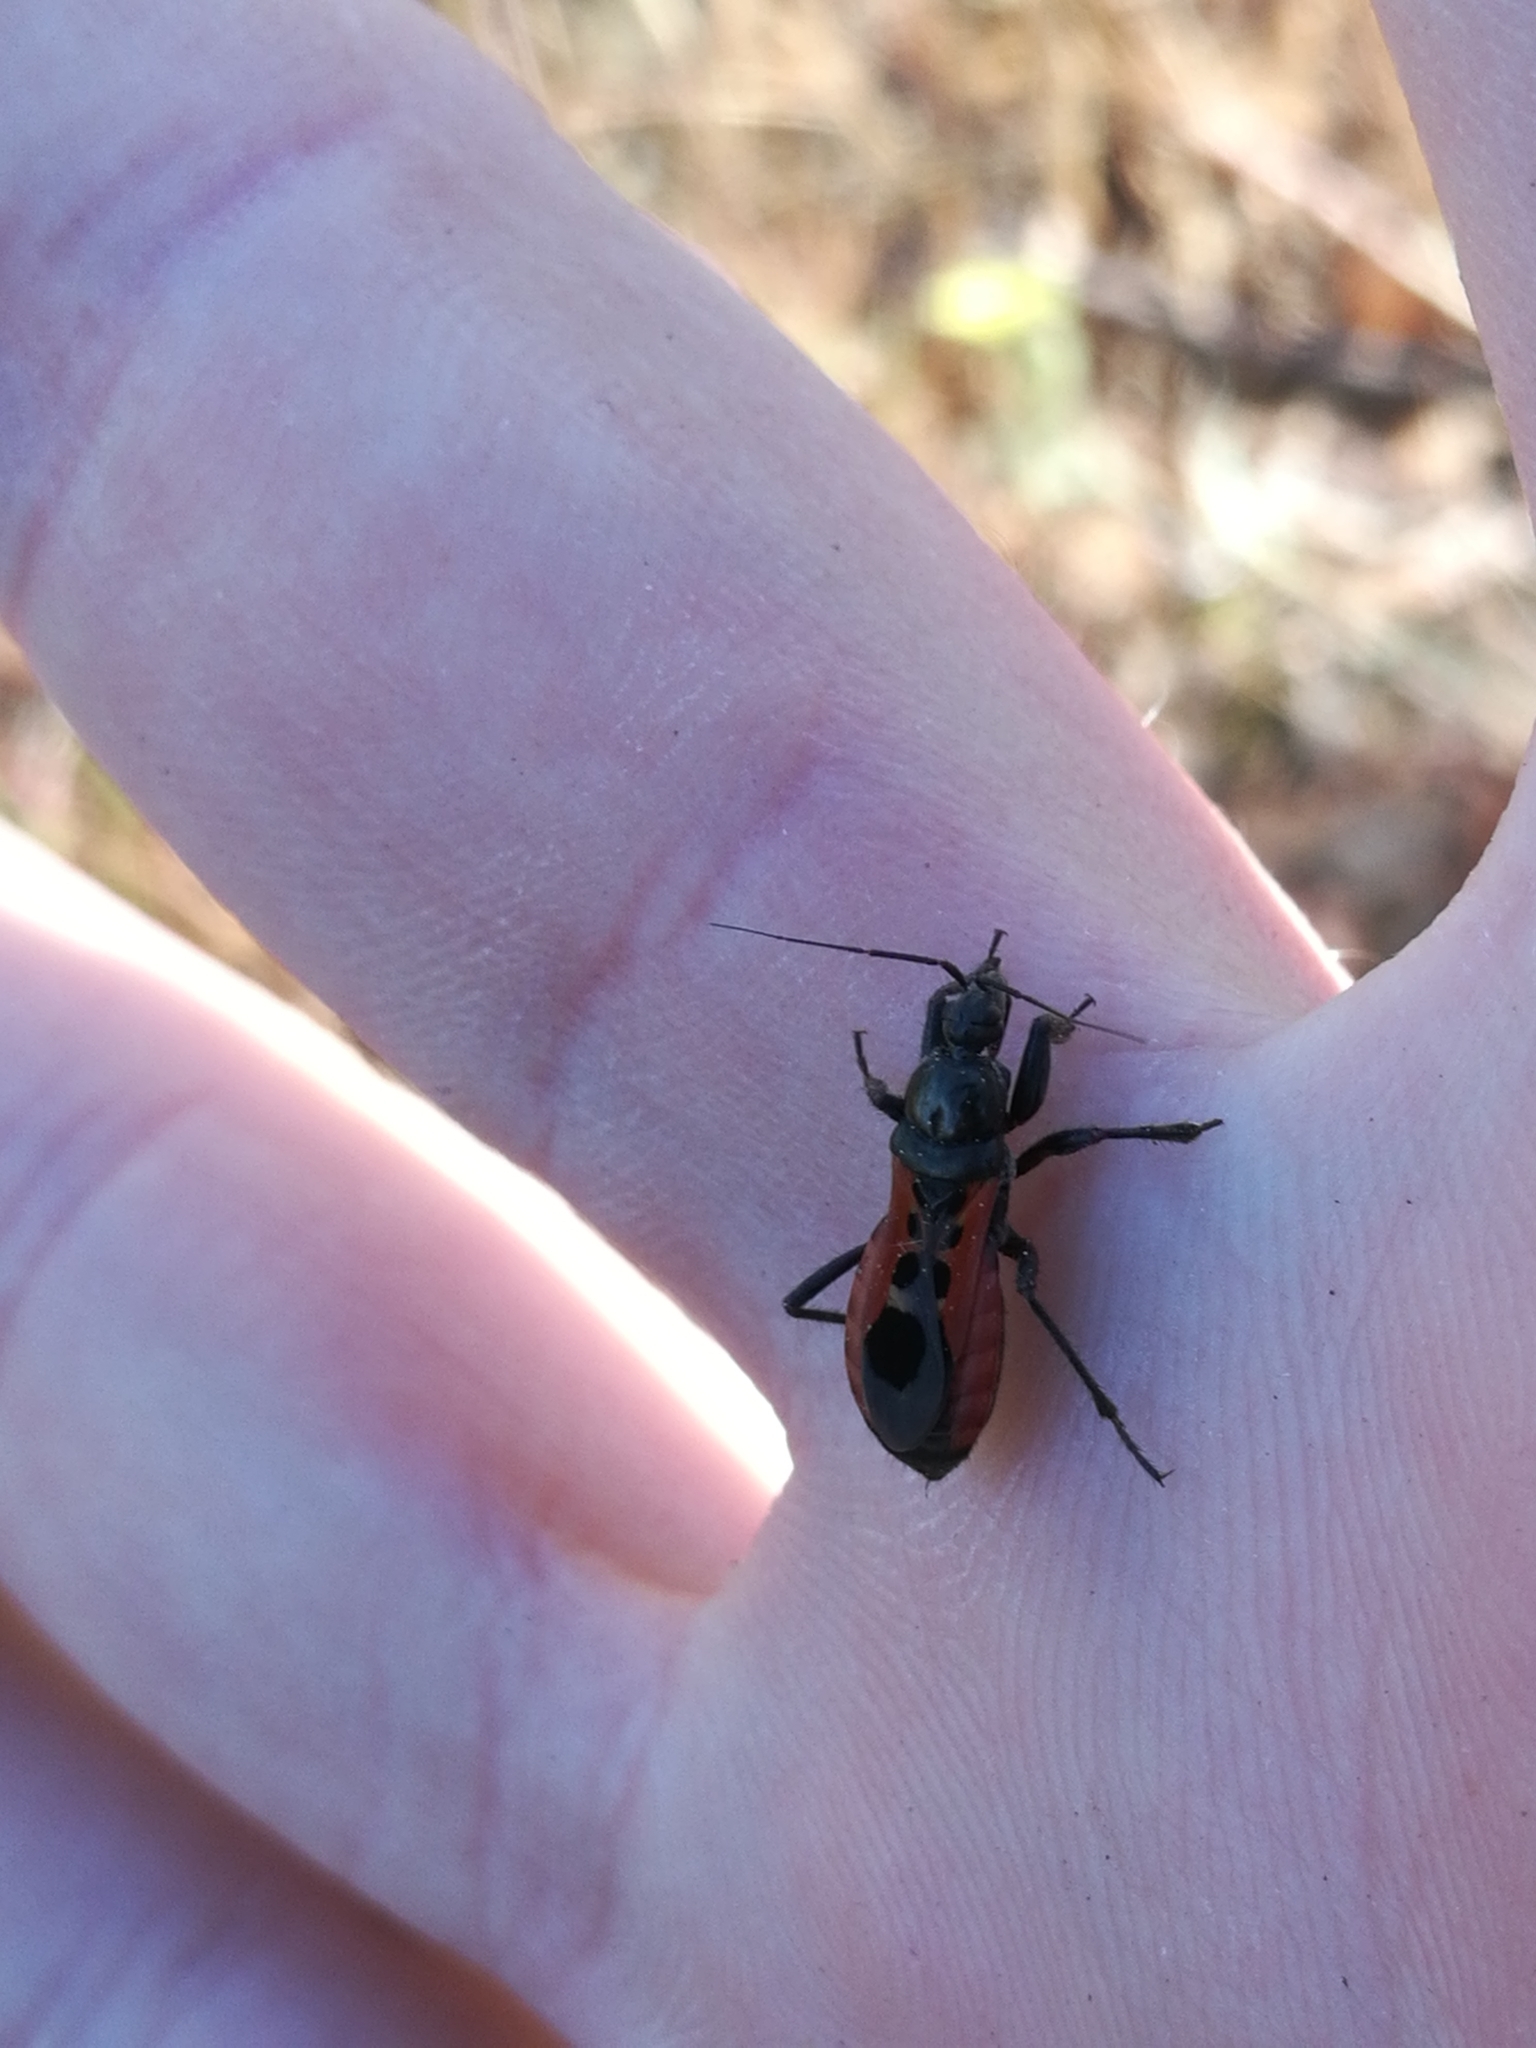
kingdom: Animalia
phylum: Arthropoda
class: Insecta
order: Hemiptera
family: Reduviidae
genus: Peirates
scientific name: Peirates stridulus
